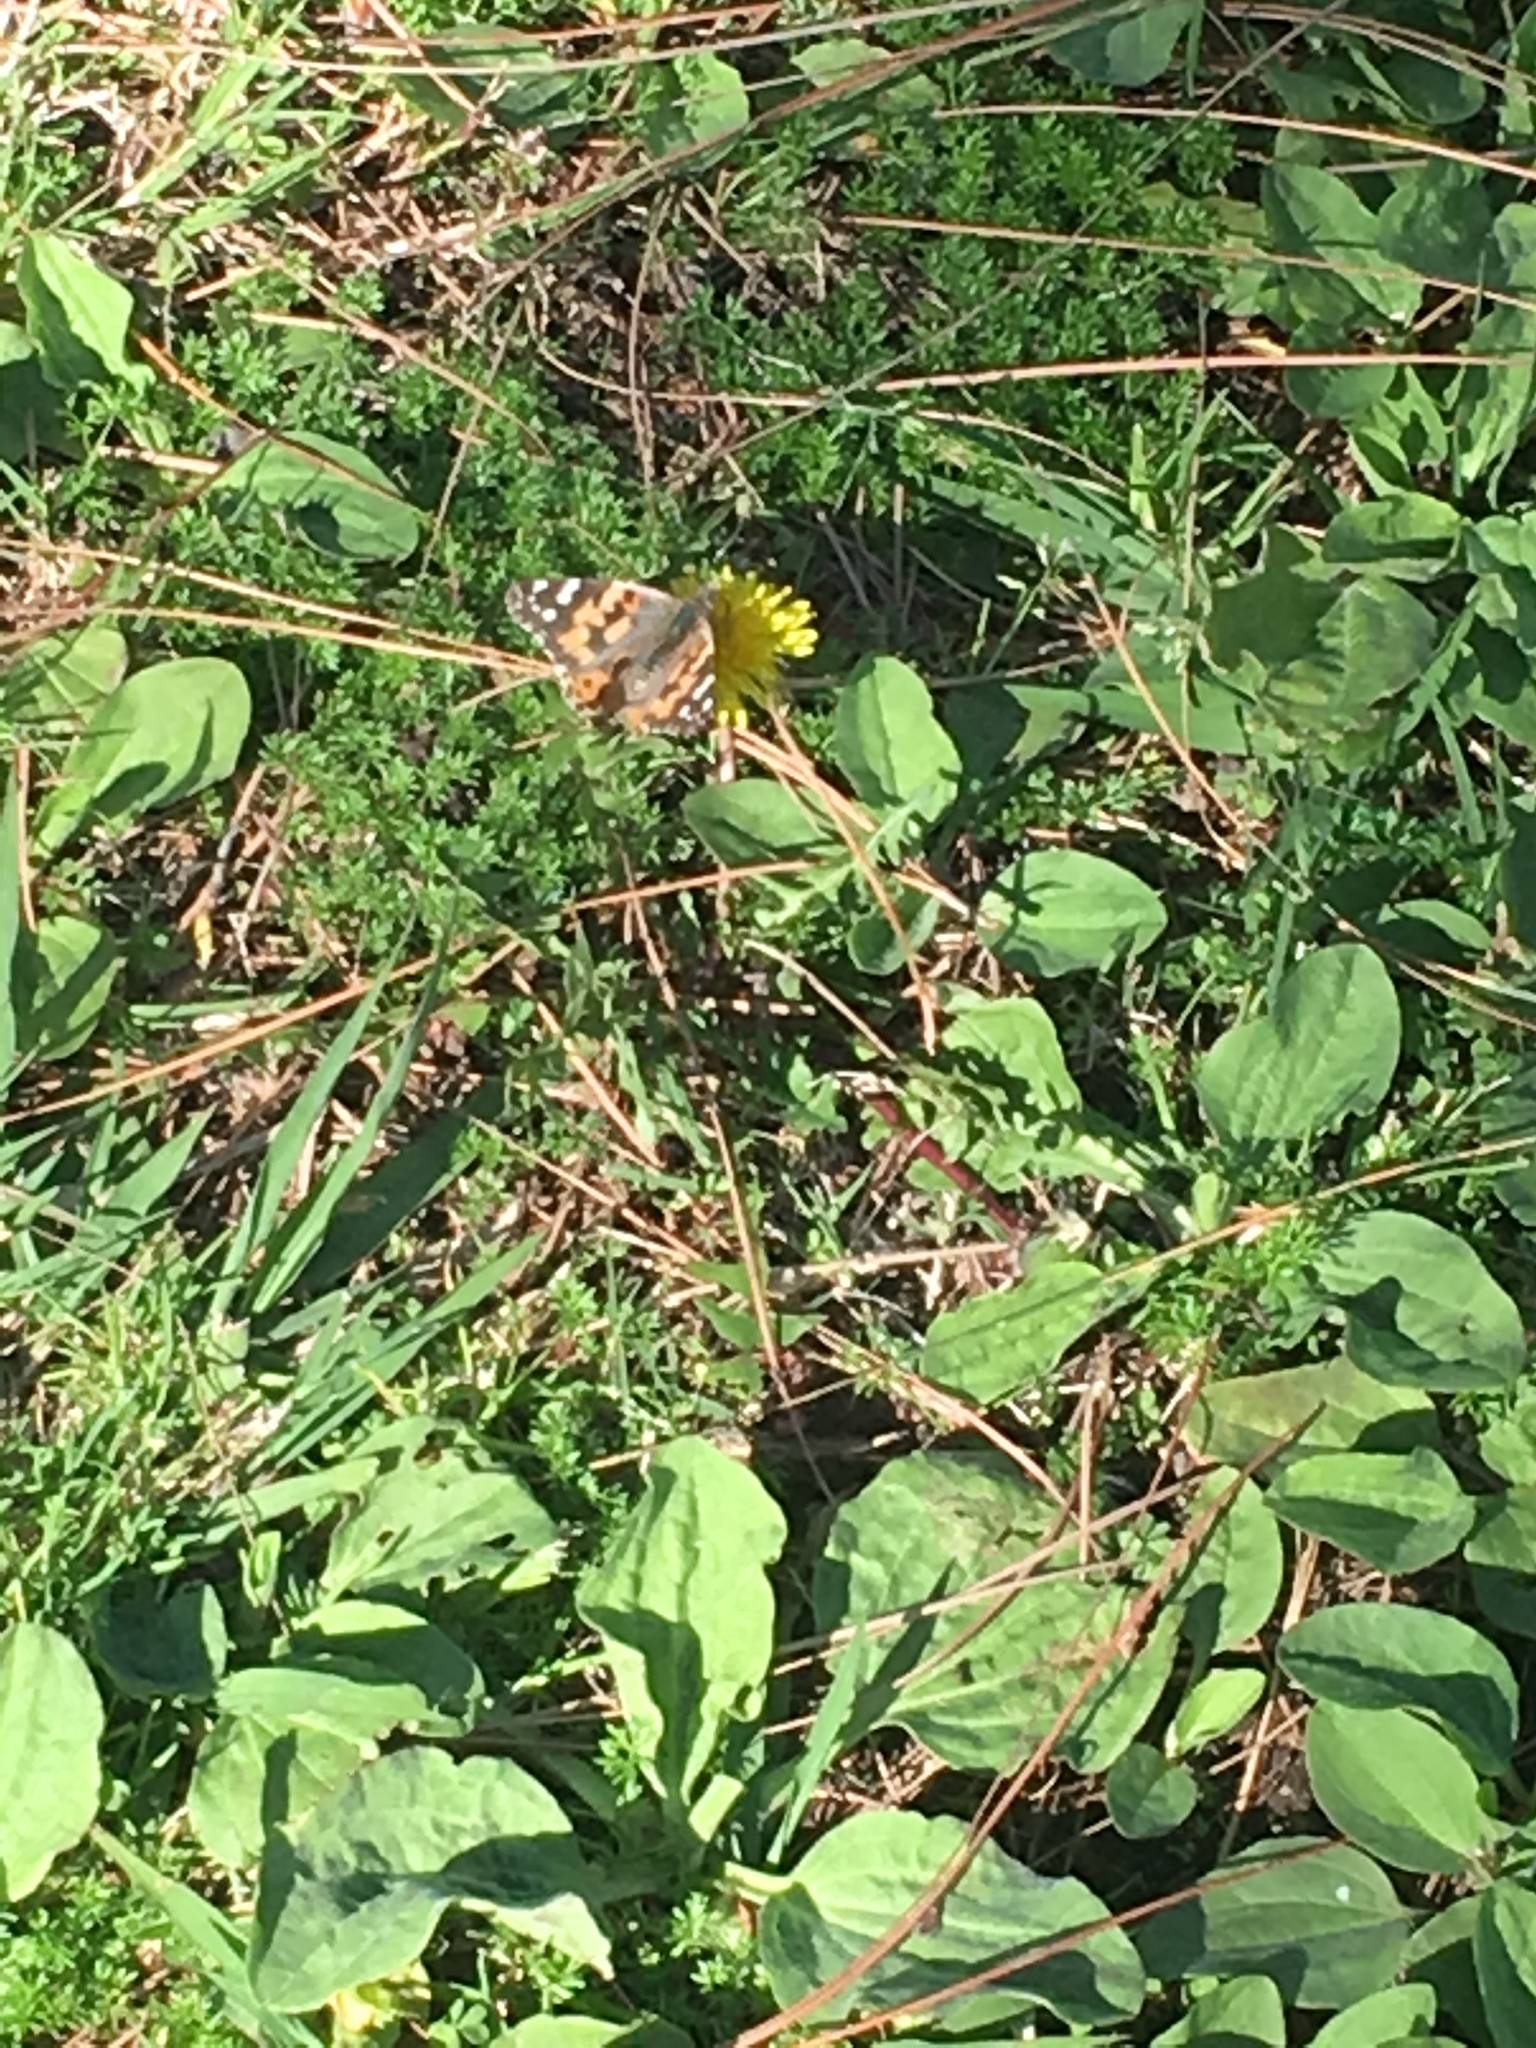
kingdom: Animalia
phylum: Arthropoda
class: Insecta
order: Lepidoptera
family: Nymphalidae
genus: Vanessa
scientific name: Vanessa cardui
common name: Painted lady
